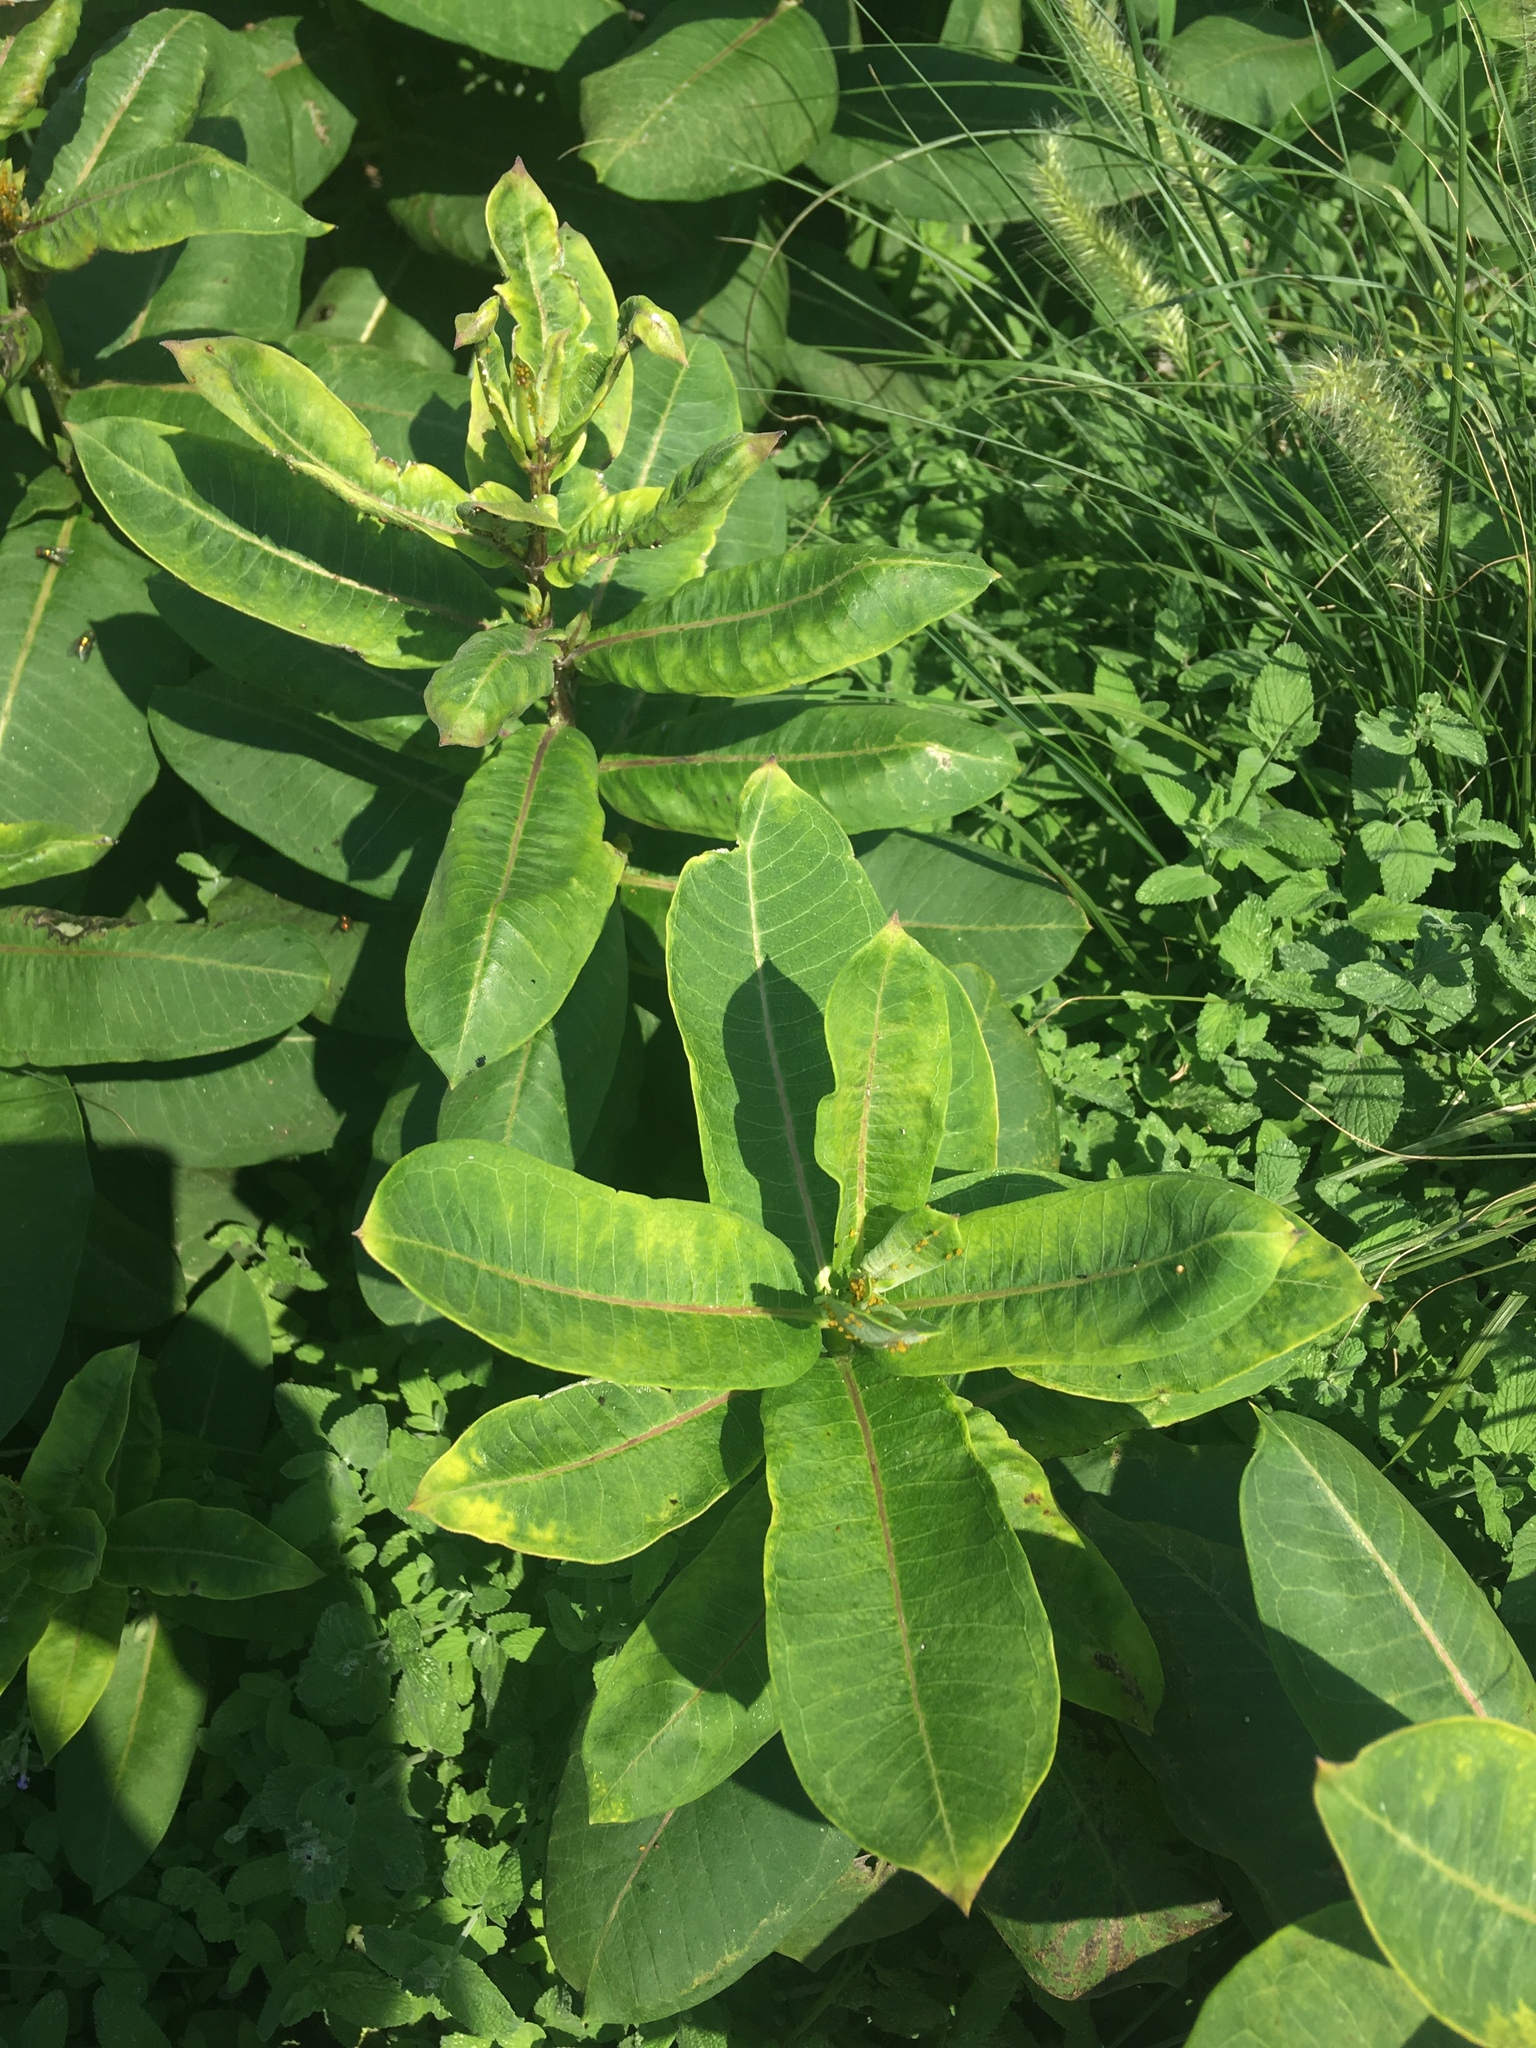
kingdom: Plantae
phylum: Tracheophyta
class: Magnoliopsida
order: Gentianales
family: Apocynaceae
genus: Asclepias
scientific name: Asclepias syriaca
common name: Common milkweed
